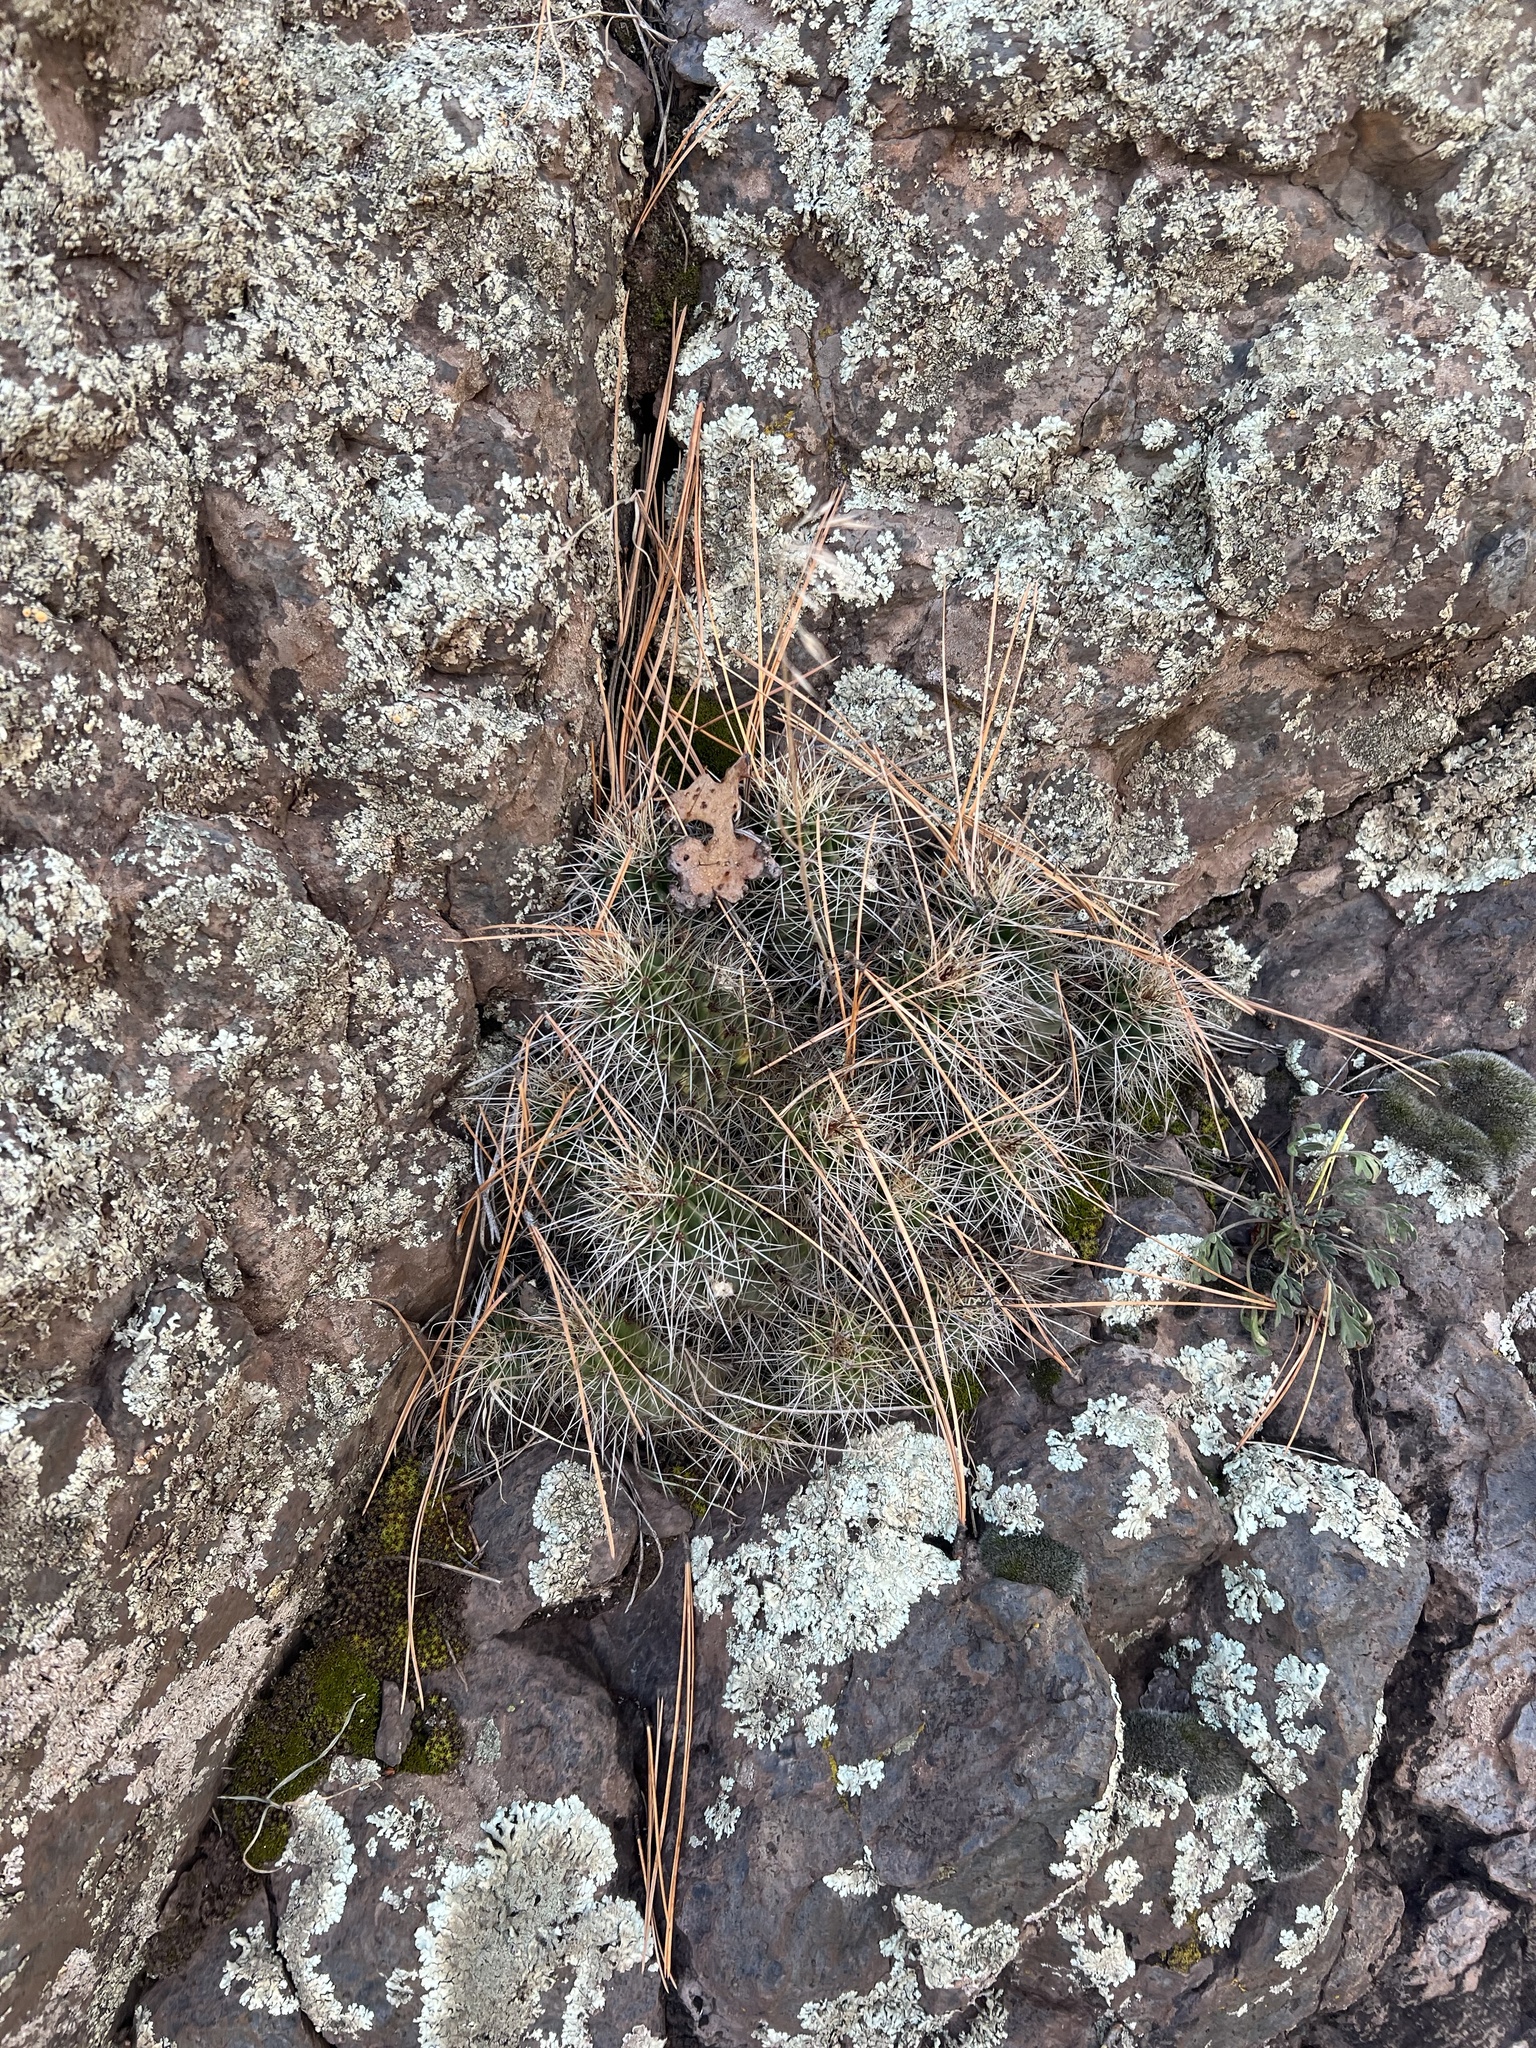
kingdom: Plantae
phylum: Tracheophyta
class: Magnoliopsida
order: Caryophyllales
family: Cactaceae
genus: Echinocereus
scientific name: Echinocereus bakeri
